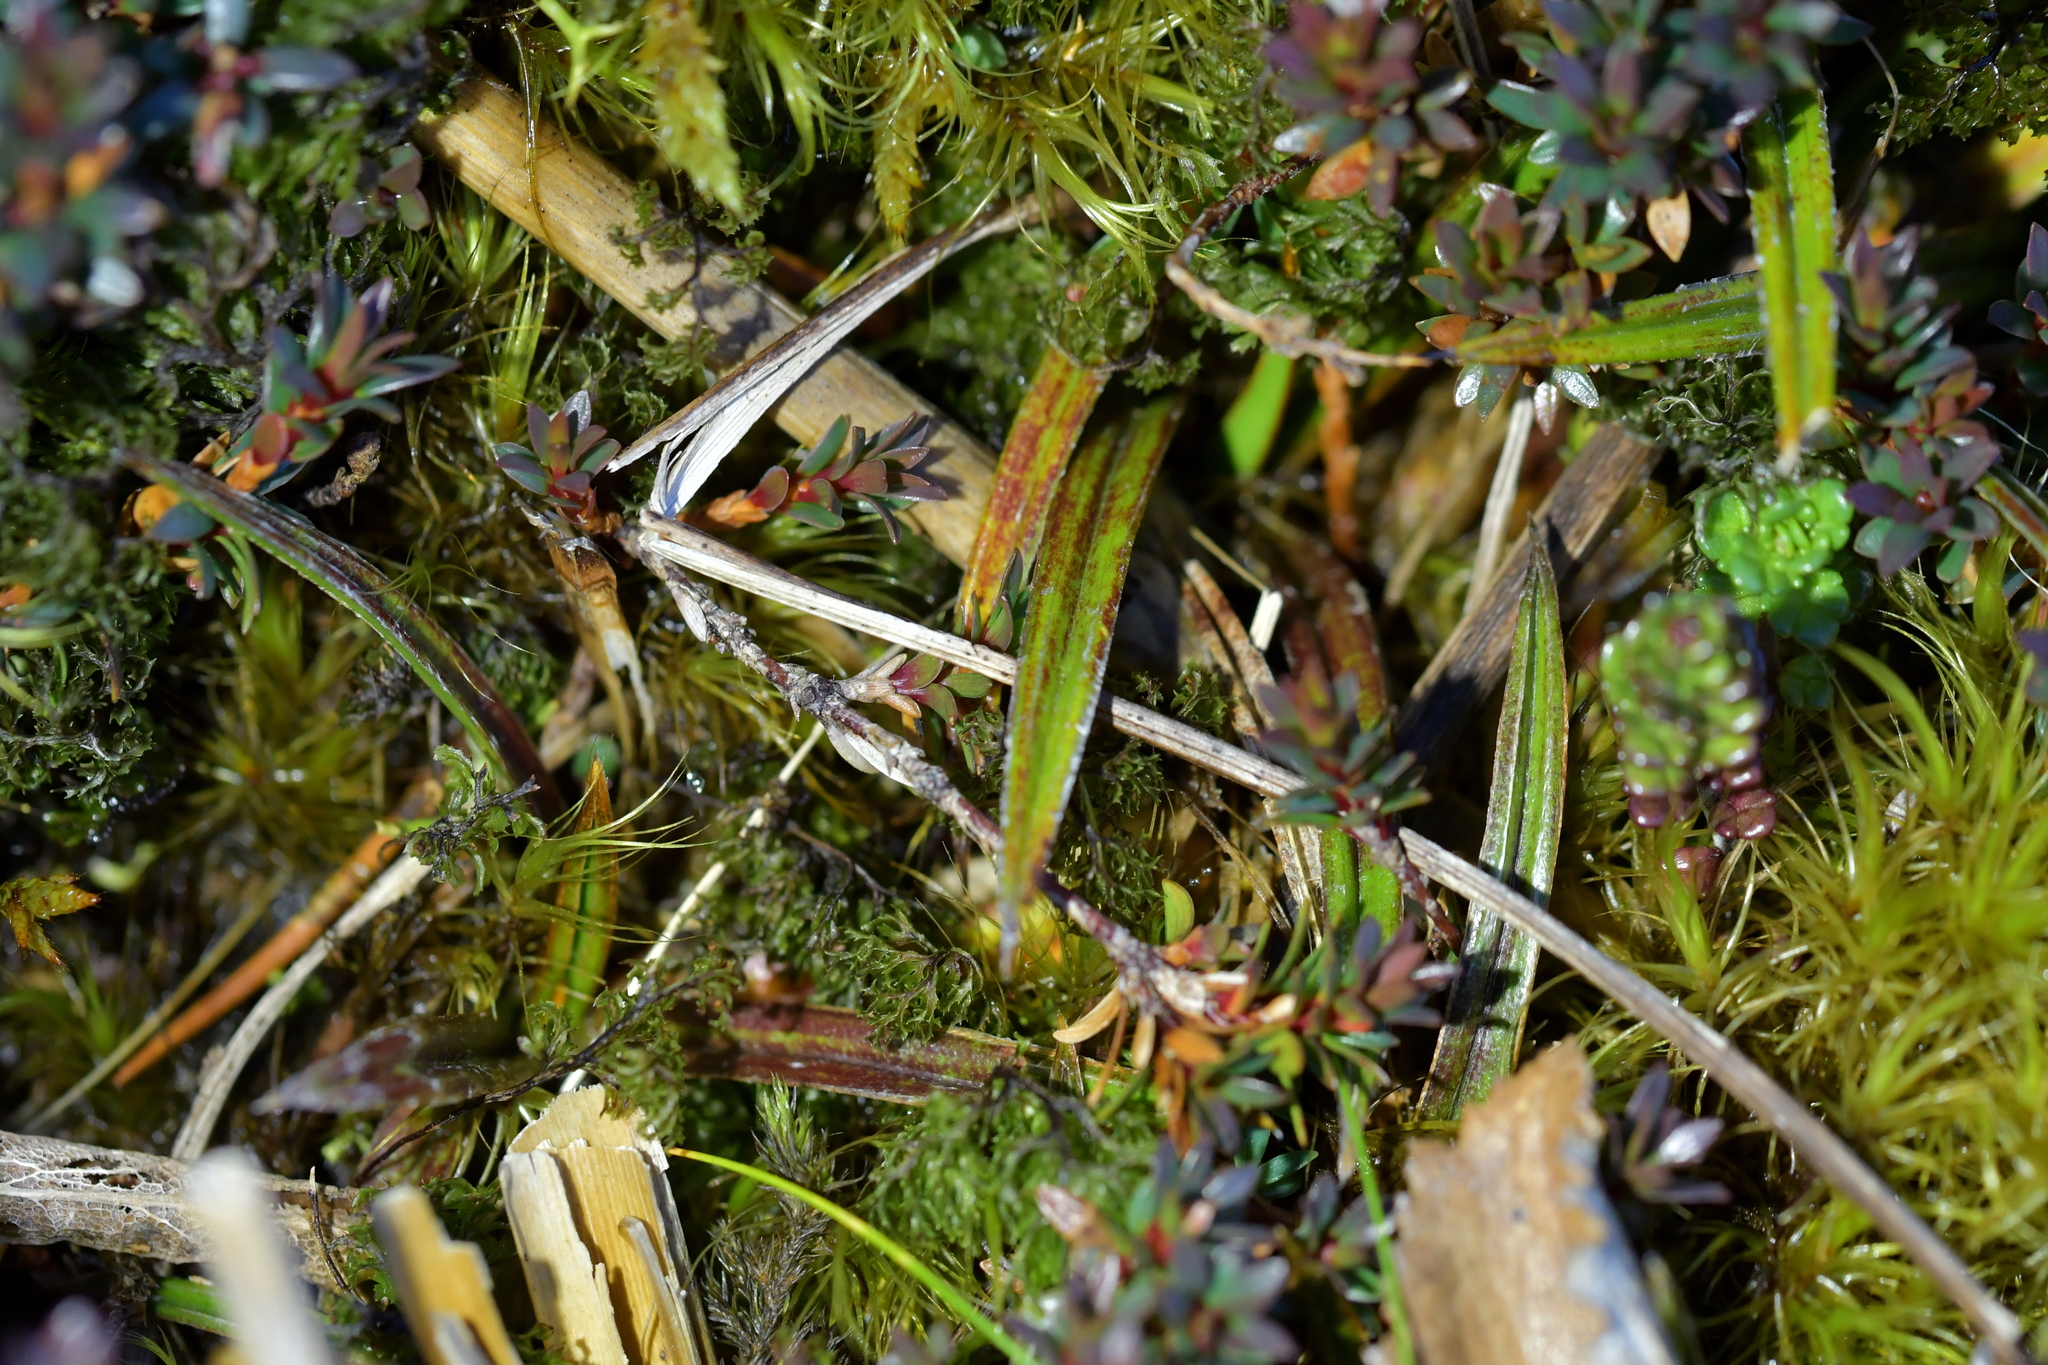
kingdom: Plantae
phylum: Tracheophyta
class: Liliopsida
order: Asparagales
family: Asteliaceae
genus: Astelia
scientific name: Astelia linearis
